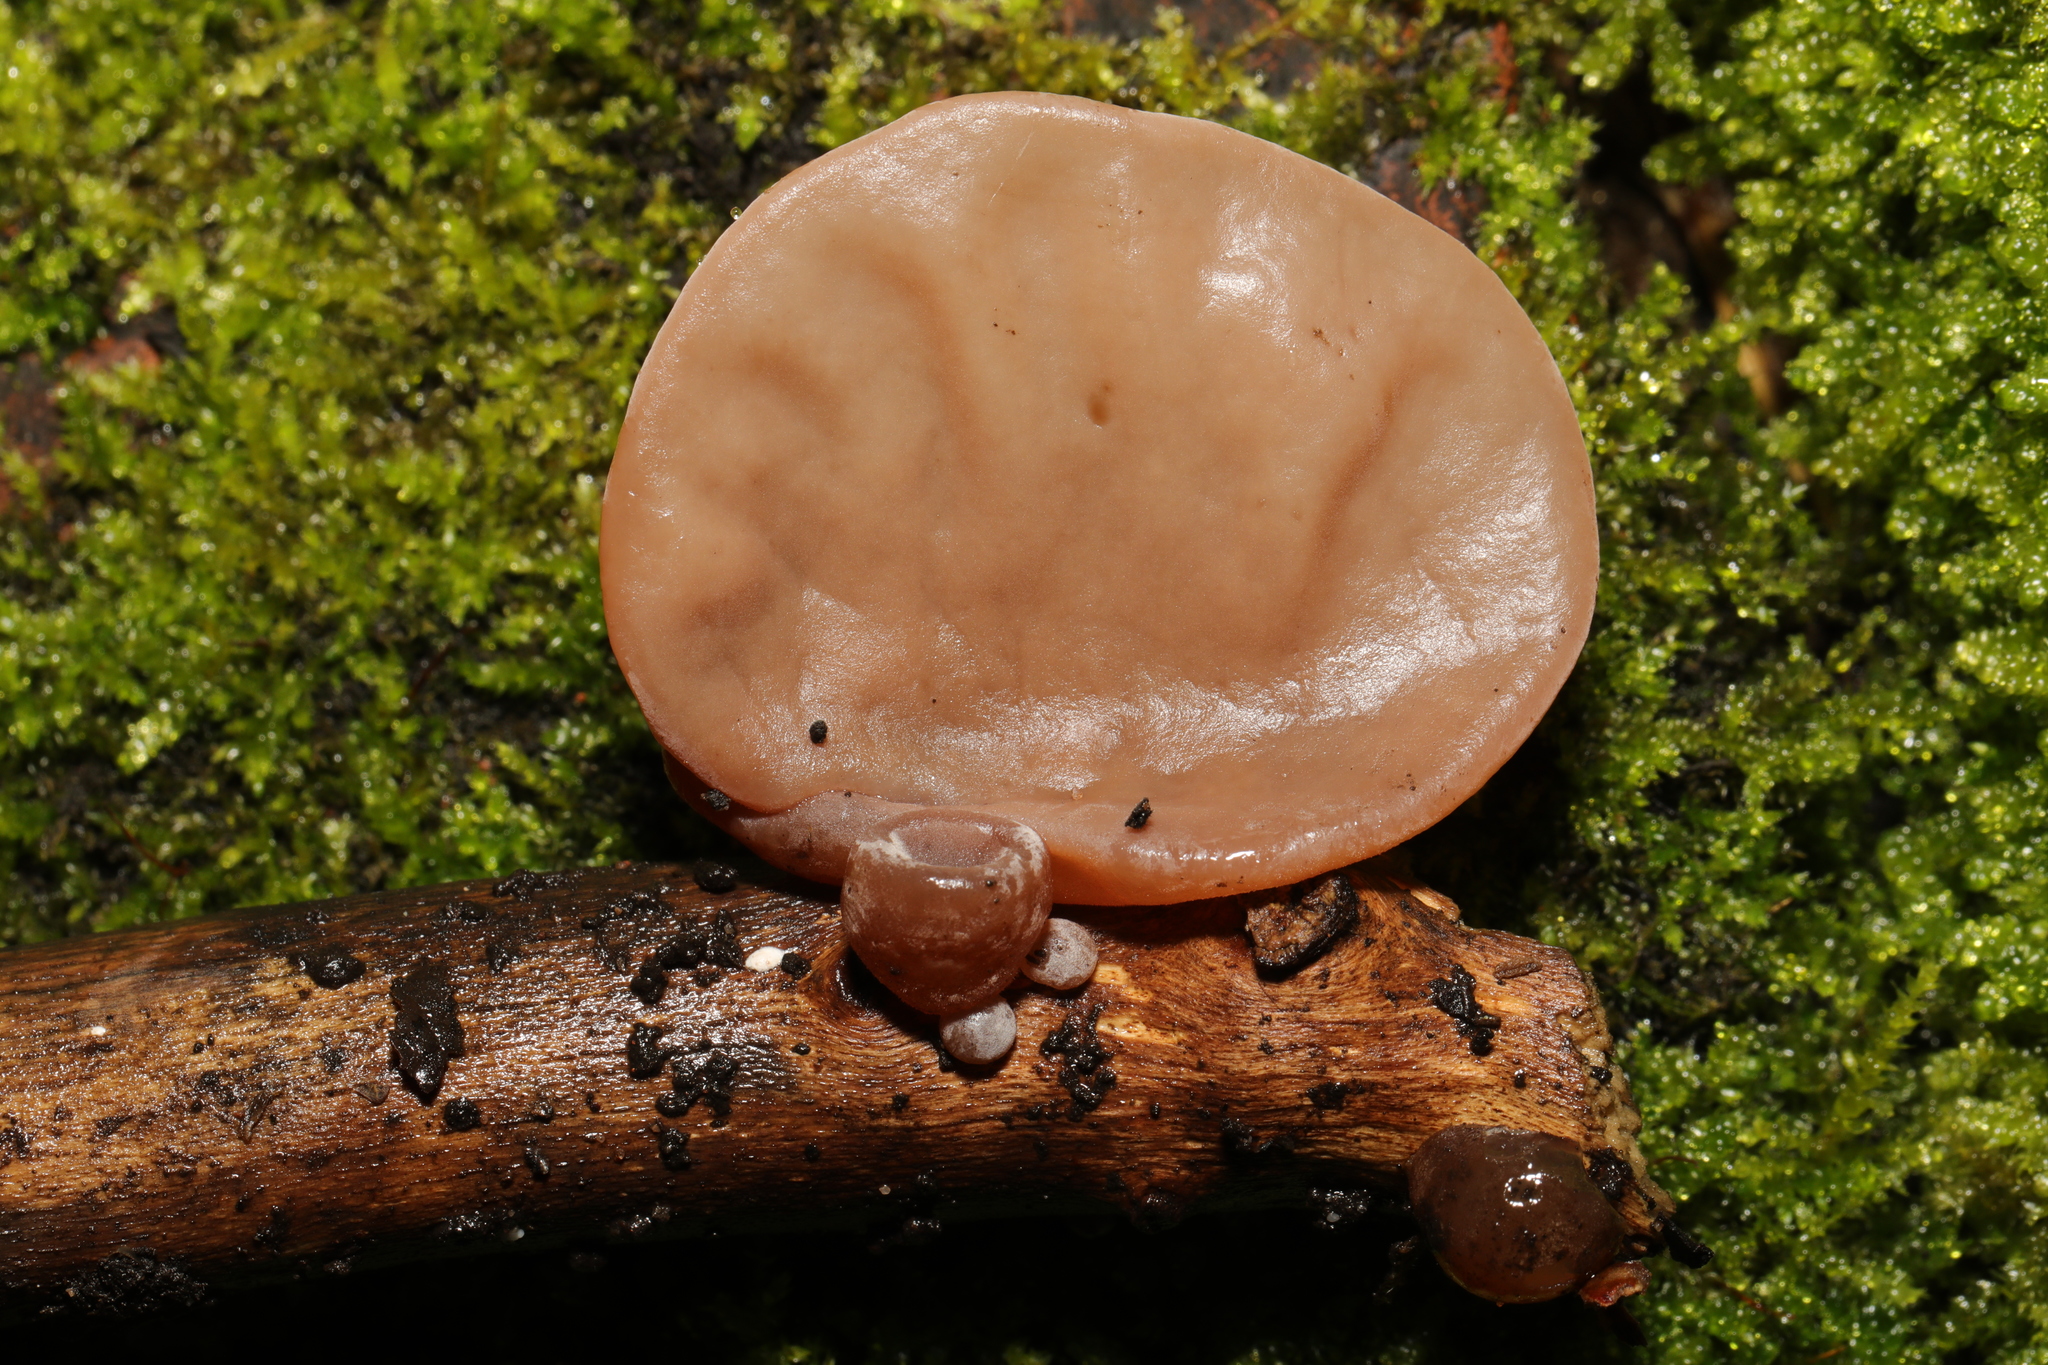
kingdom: Fungi
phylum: Basidiomycota
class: Agaricomycetes
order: Auriculariales
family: Auriculariaceae
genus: Auricularia
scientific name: Auricularia auricula-judae
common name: Jelly ear
